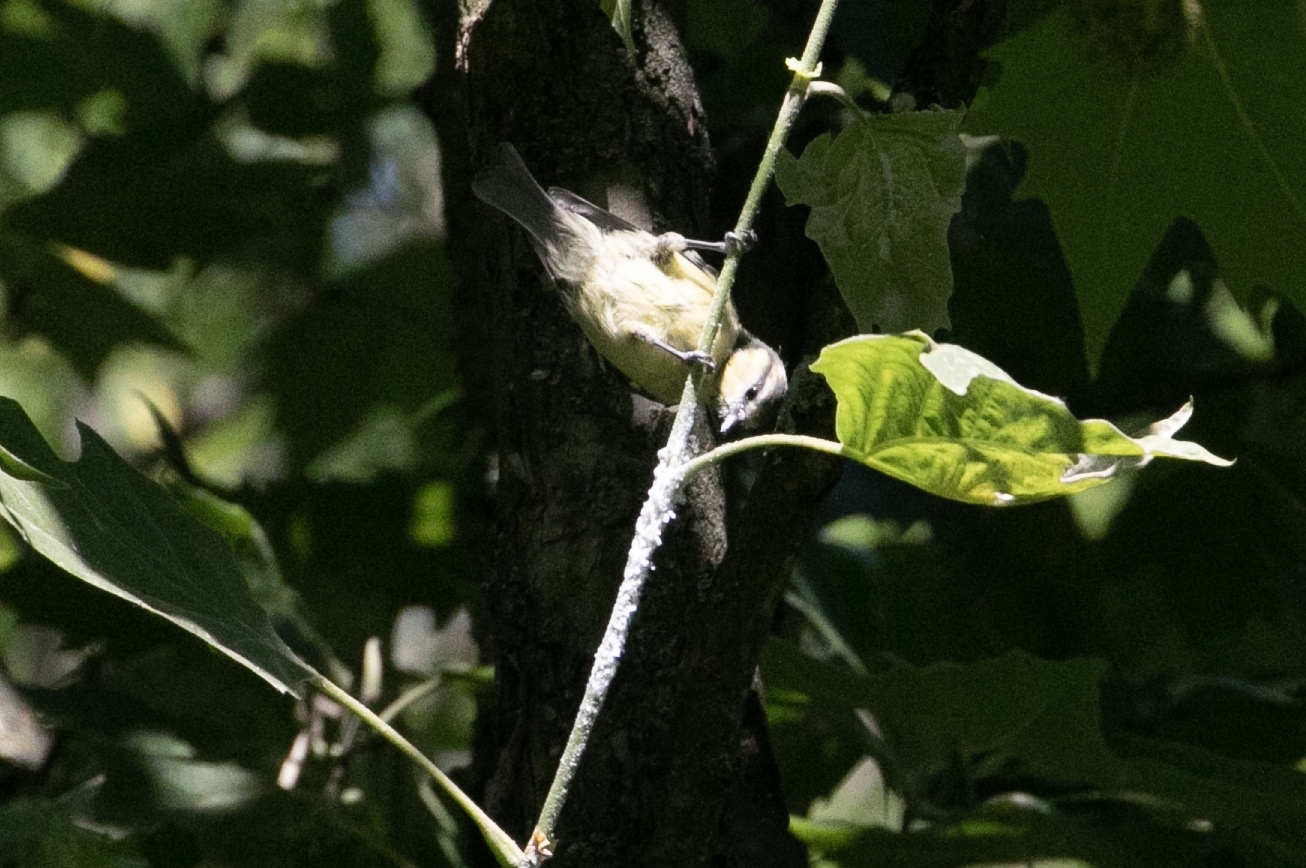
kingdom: Animalia
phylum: Chordata
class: Aves
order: Passeriformes
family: Paridae
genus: Cyanistes
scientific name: Cyanistes caeruleus
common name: Eurasian blue tit
